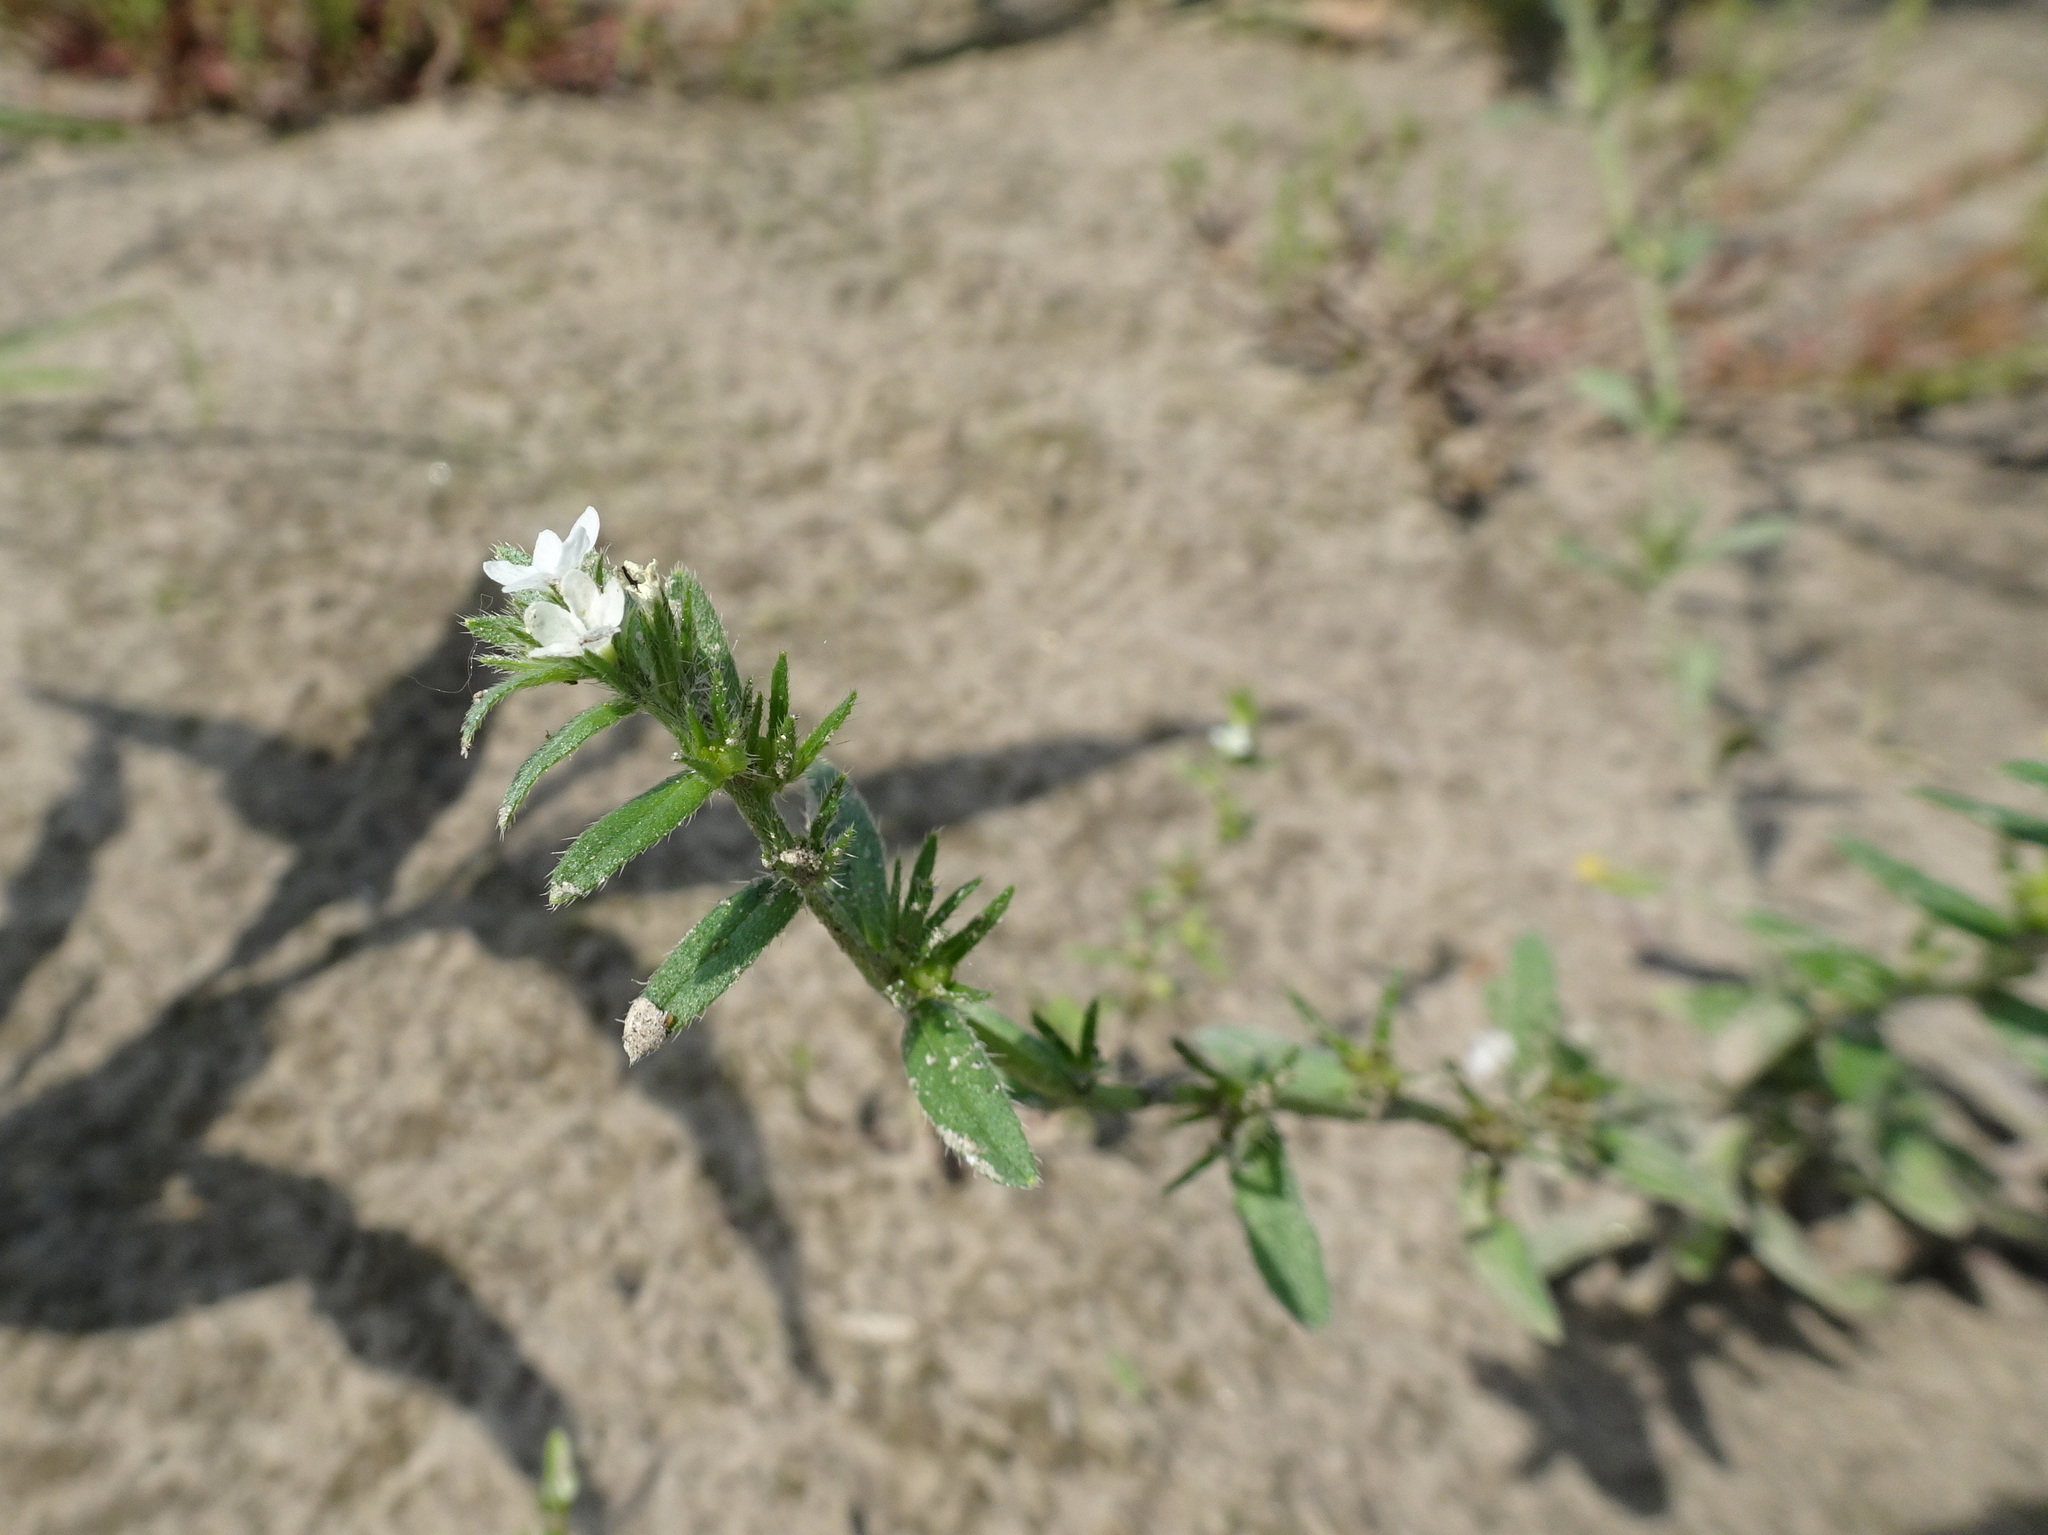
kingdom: Plantae
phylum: Tracheophyta
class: Magnoliopsida
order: Boraginales
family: Boraginaceae
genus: Buglossoides
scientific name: Buglossoides arvensis
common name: Corn gromwell
